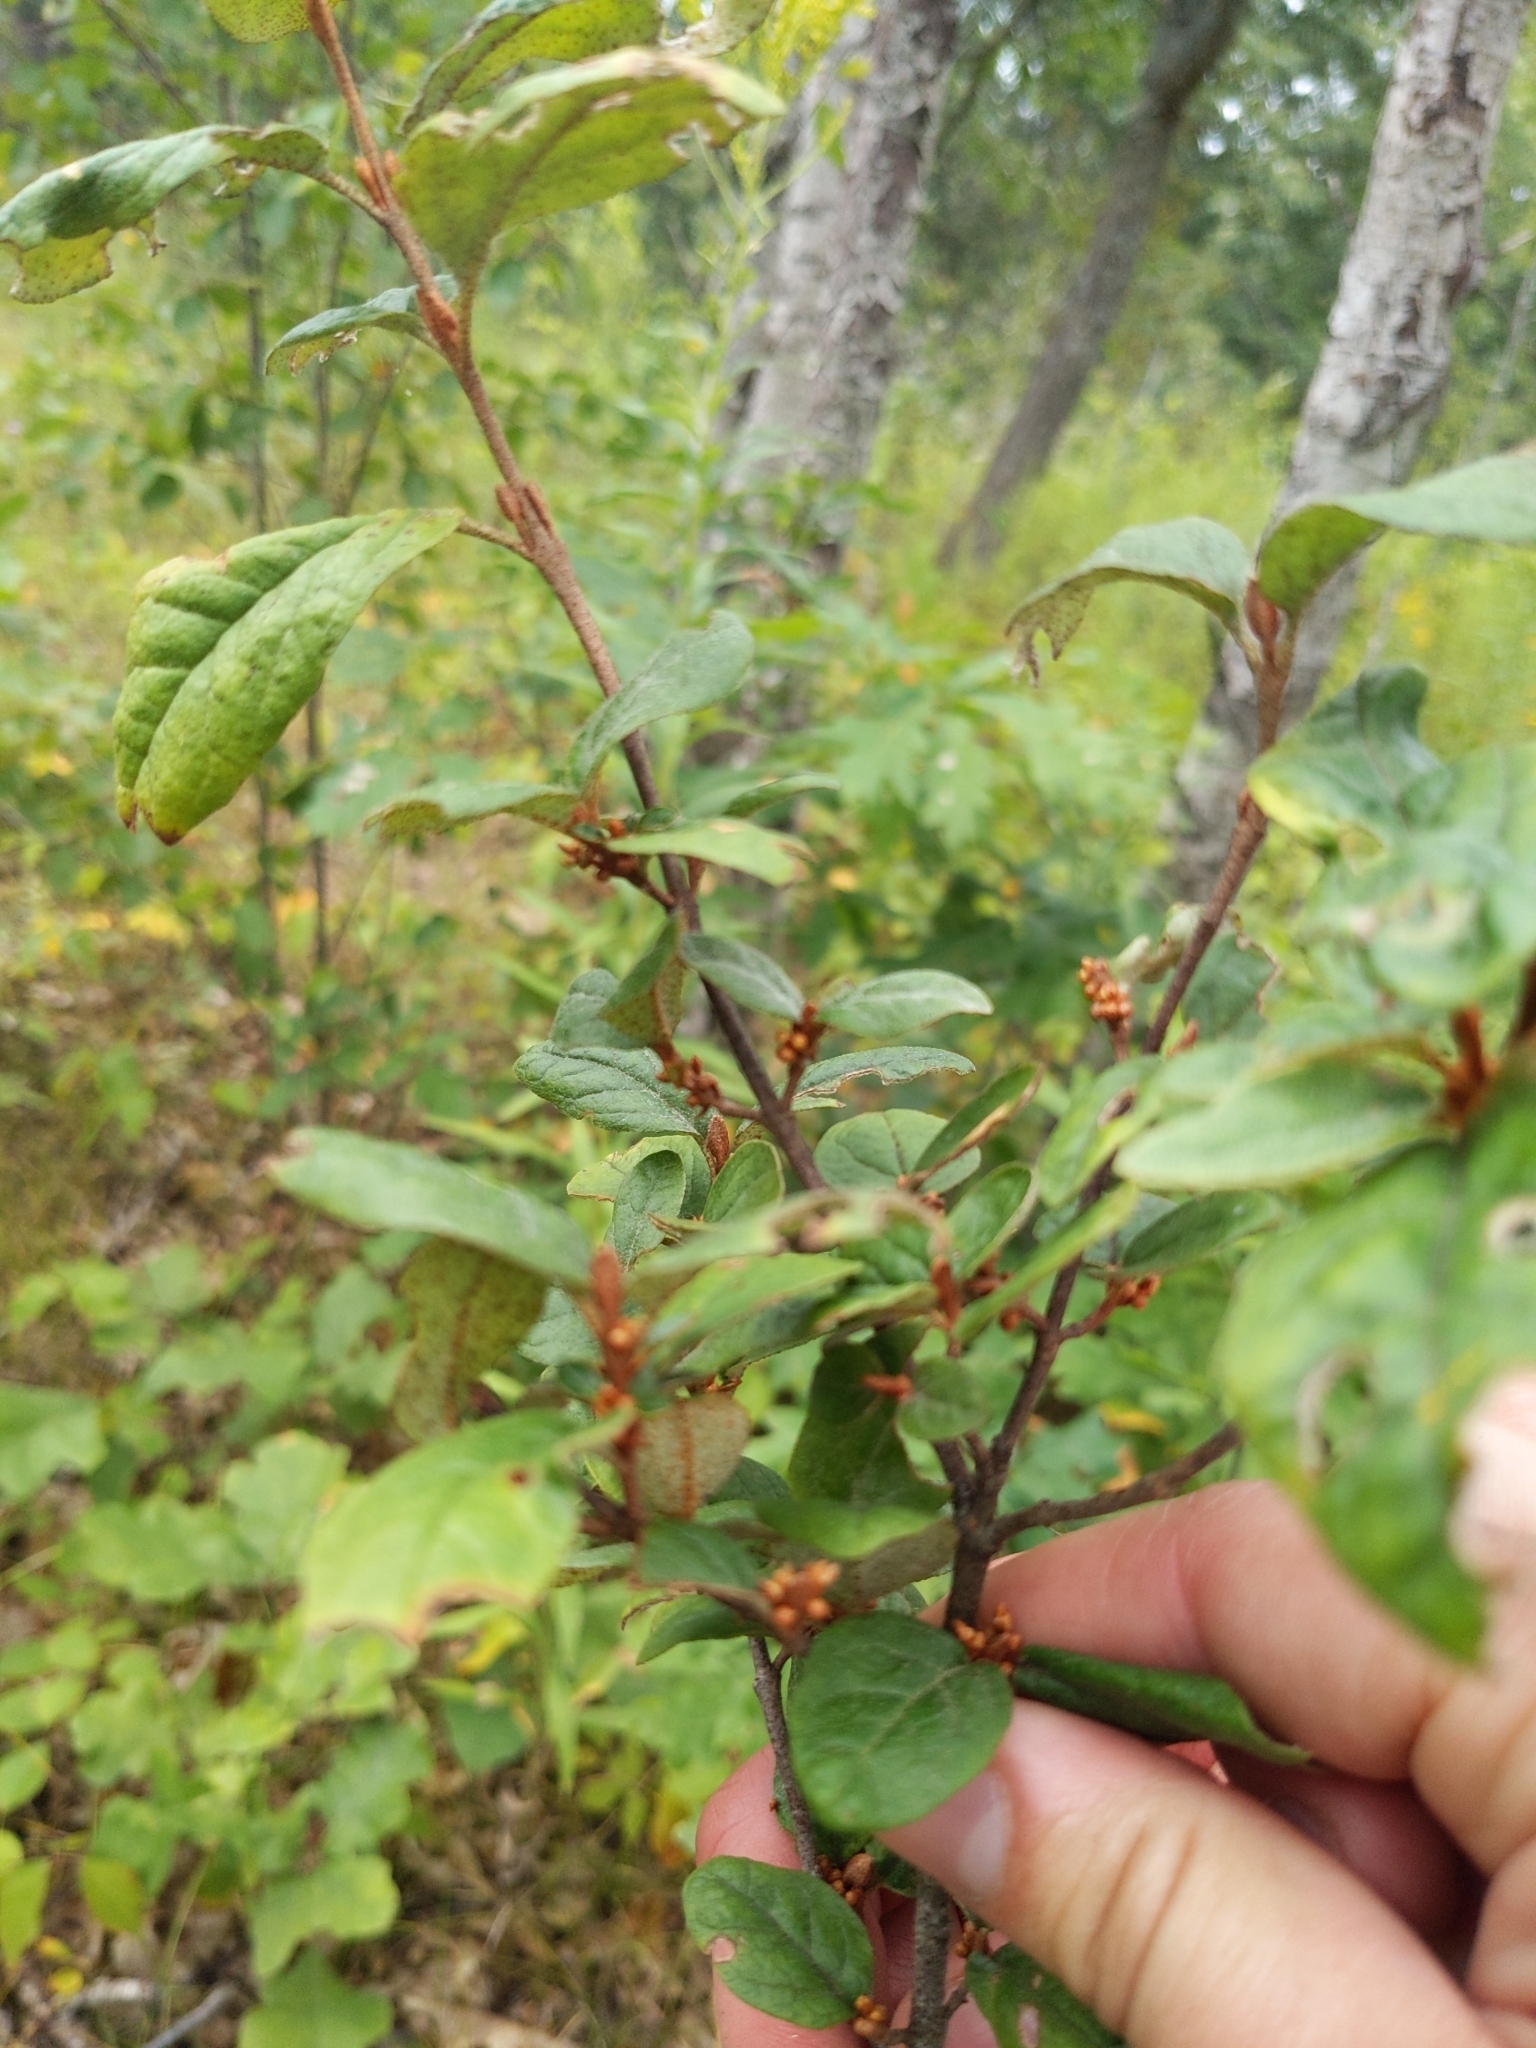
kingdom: Plantae
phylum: Tracheophyta
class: Magnoliopsida
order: Rosales
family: Elaeagnaceae
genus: Shepherdia
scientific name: Shepherdia canadensis
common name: Soapberry
